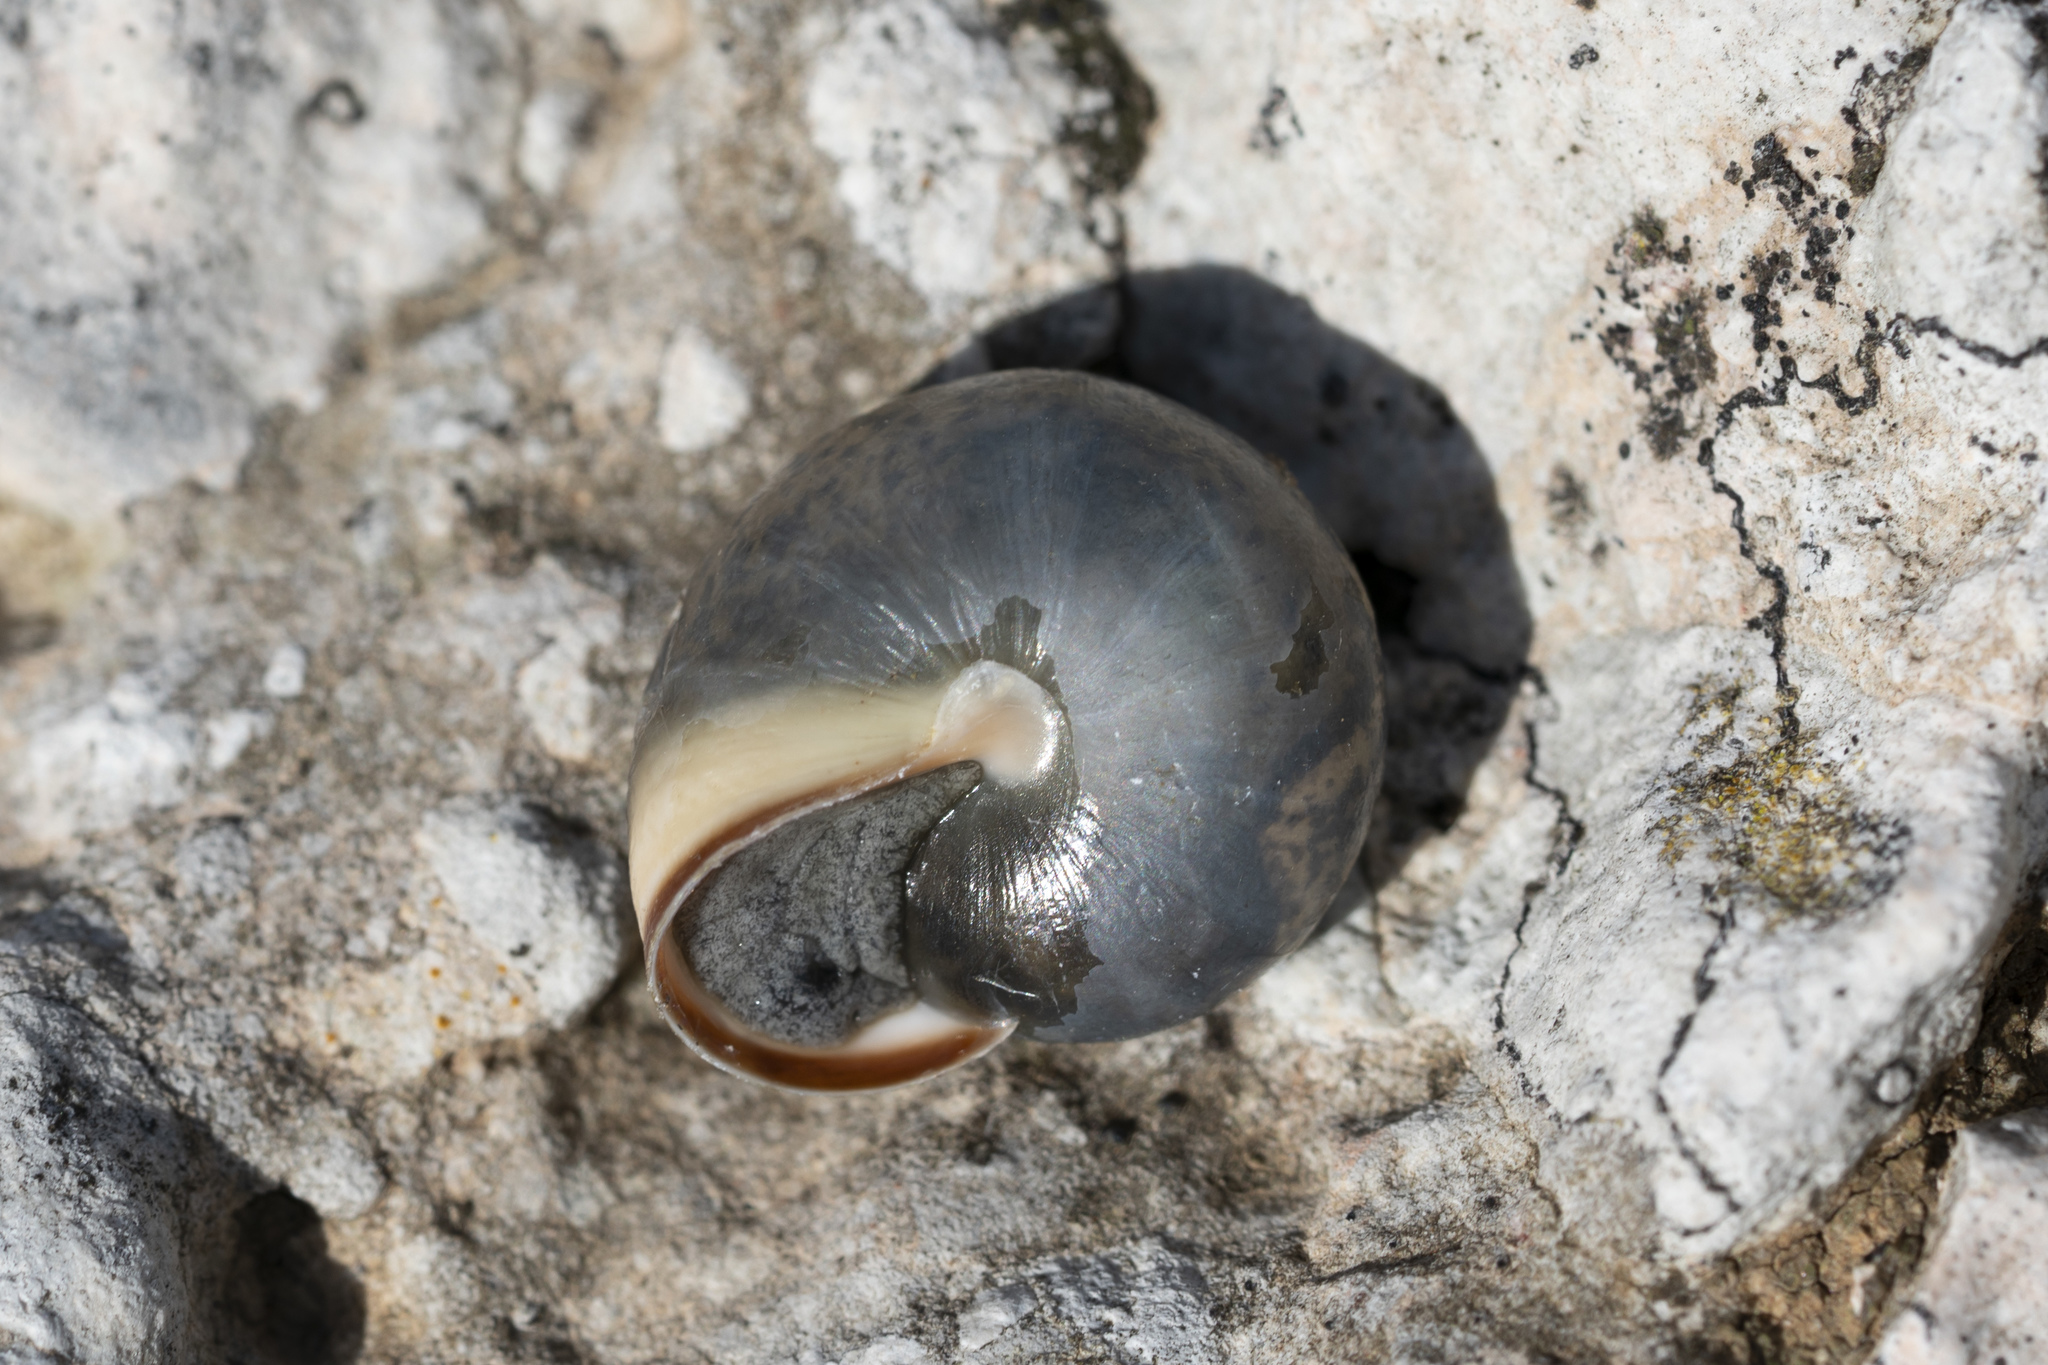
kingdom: Animalia
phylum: Mollusca
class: Gastropoda
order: Stylommatophora
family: Hygromiidae
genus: Monacha
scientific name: Monacha syriaca
